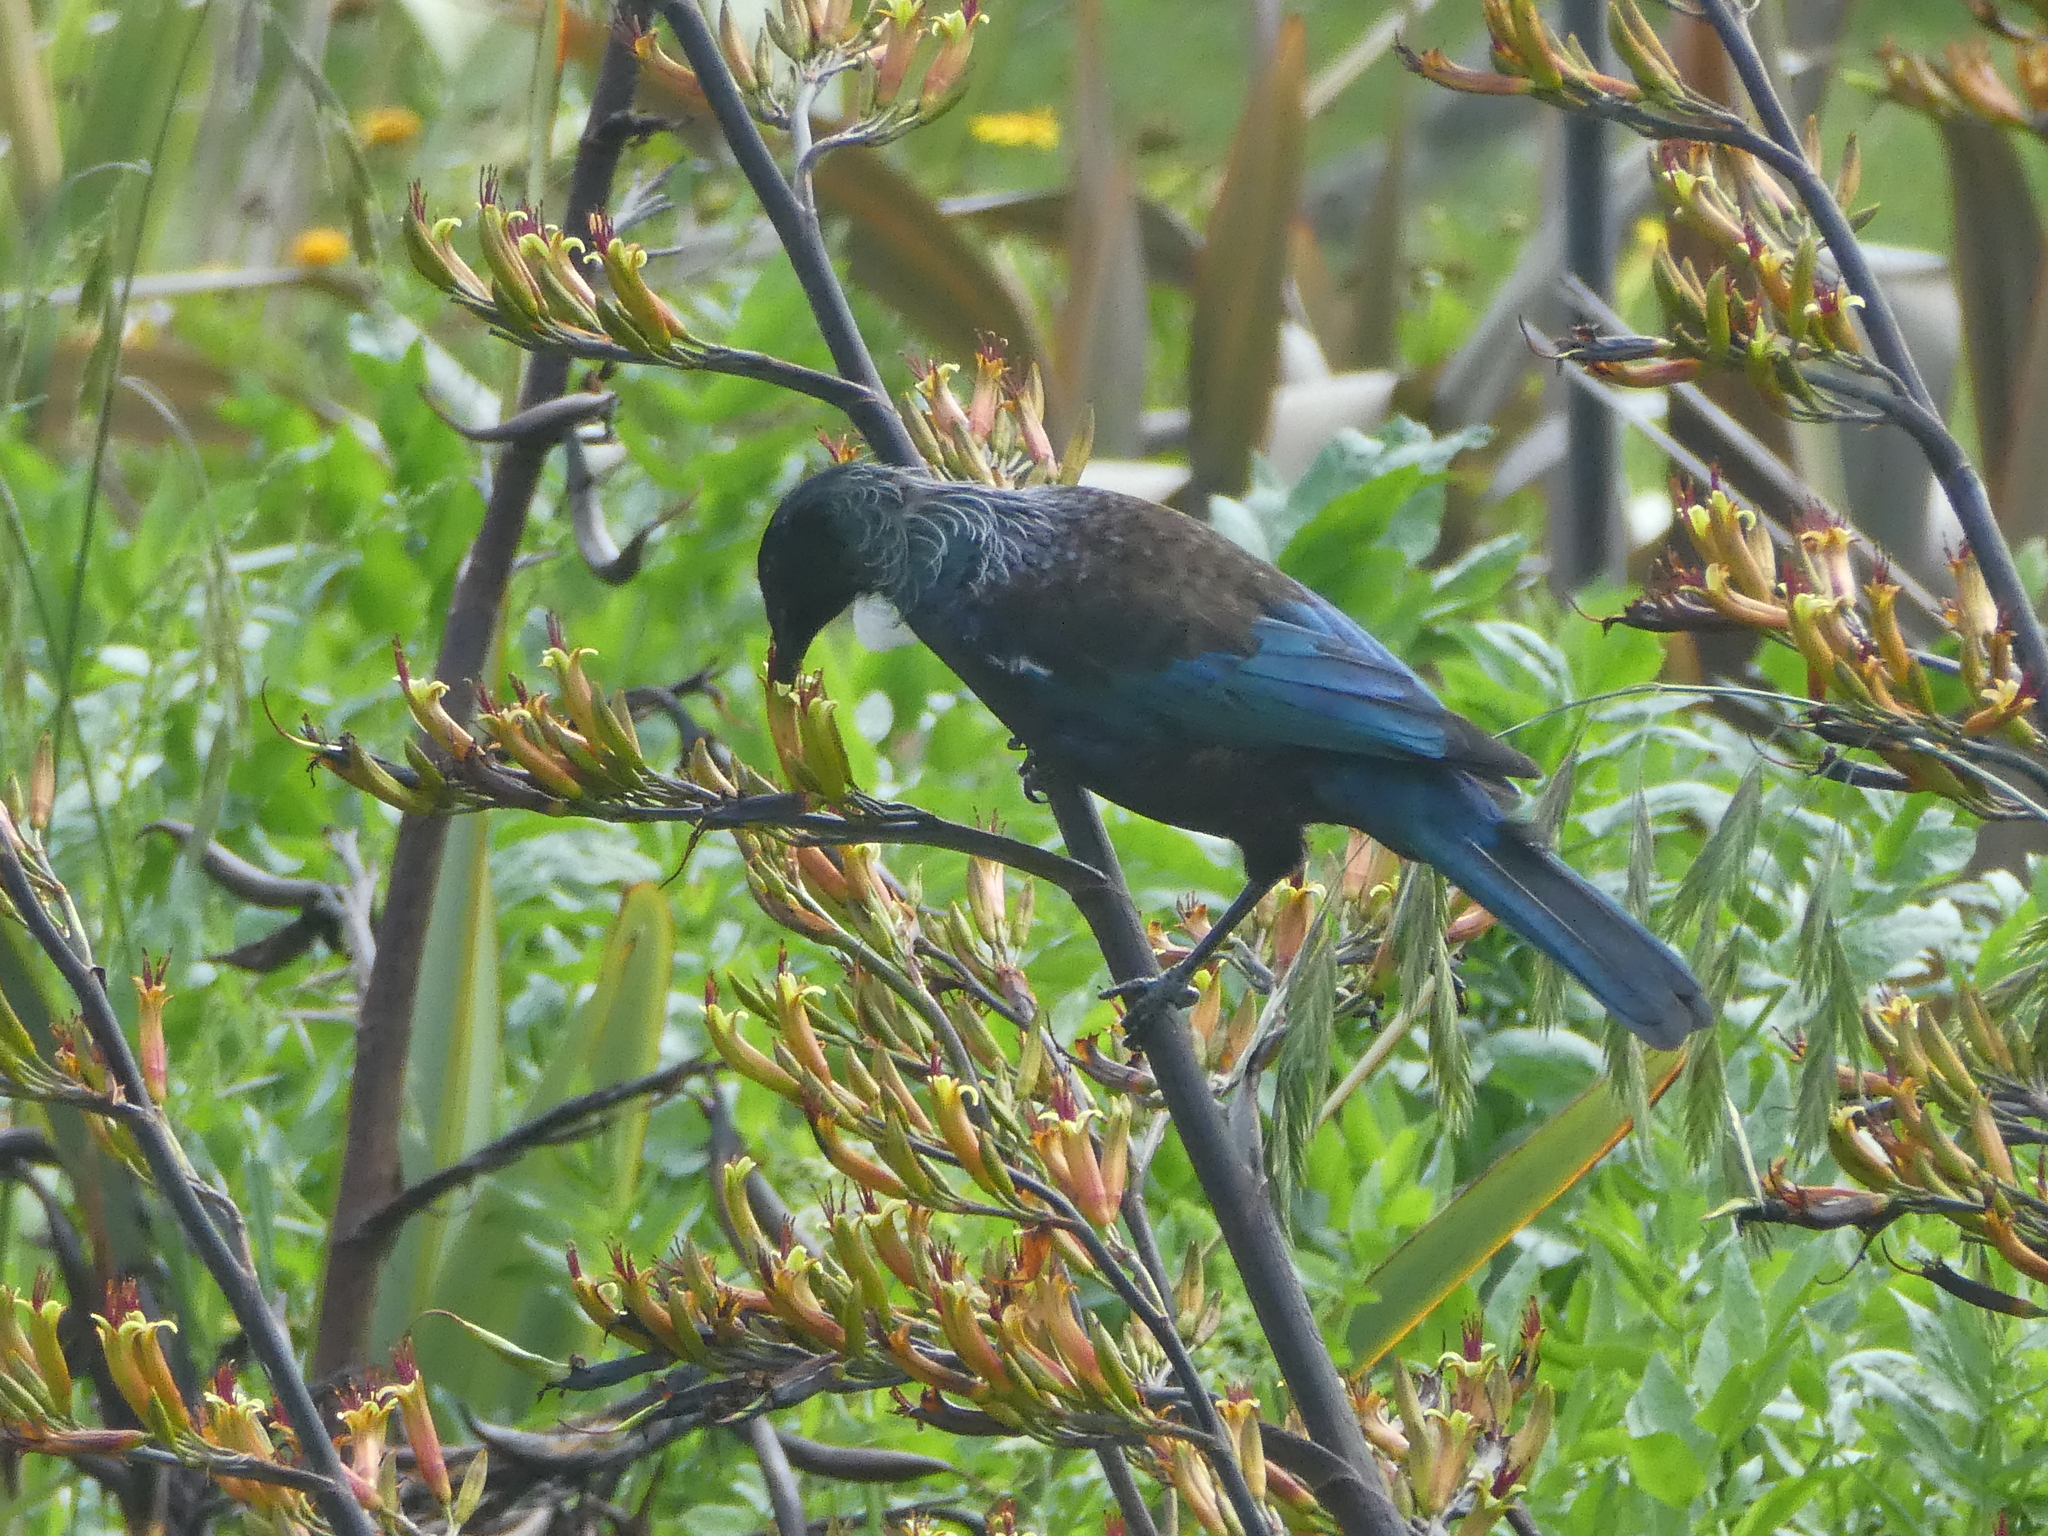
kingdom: Animalia
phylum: Chordata
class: Aves
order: Passeriformes
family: Meliphagidae
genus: Prosthemadera
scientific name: Prosthemadera novaeseelandiae
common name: Tui
